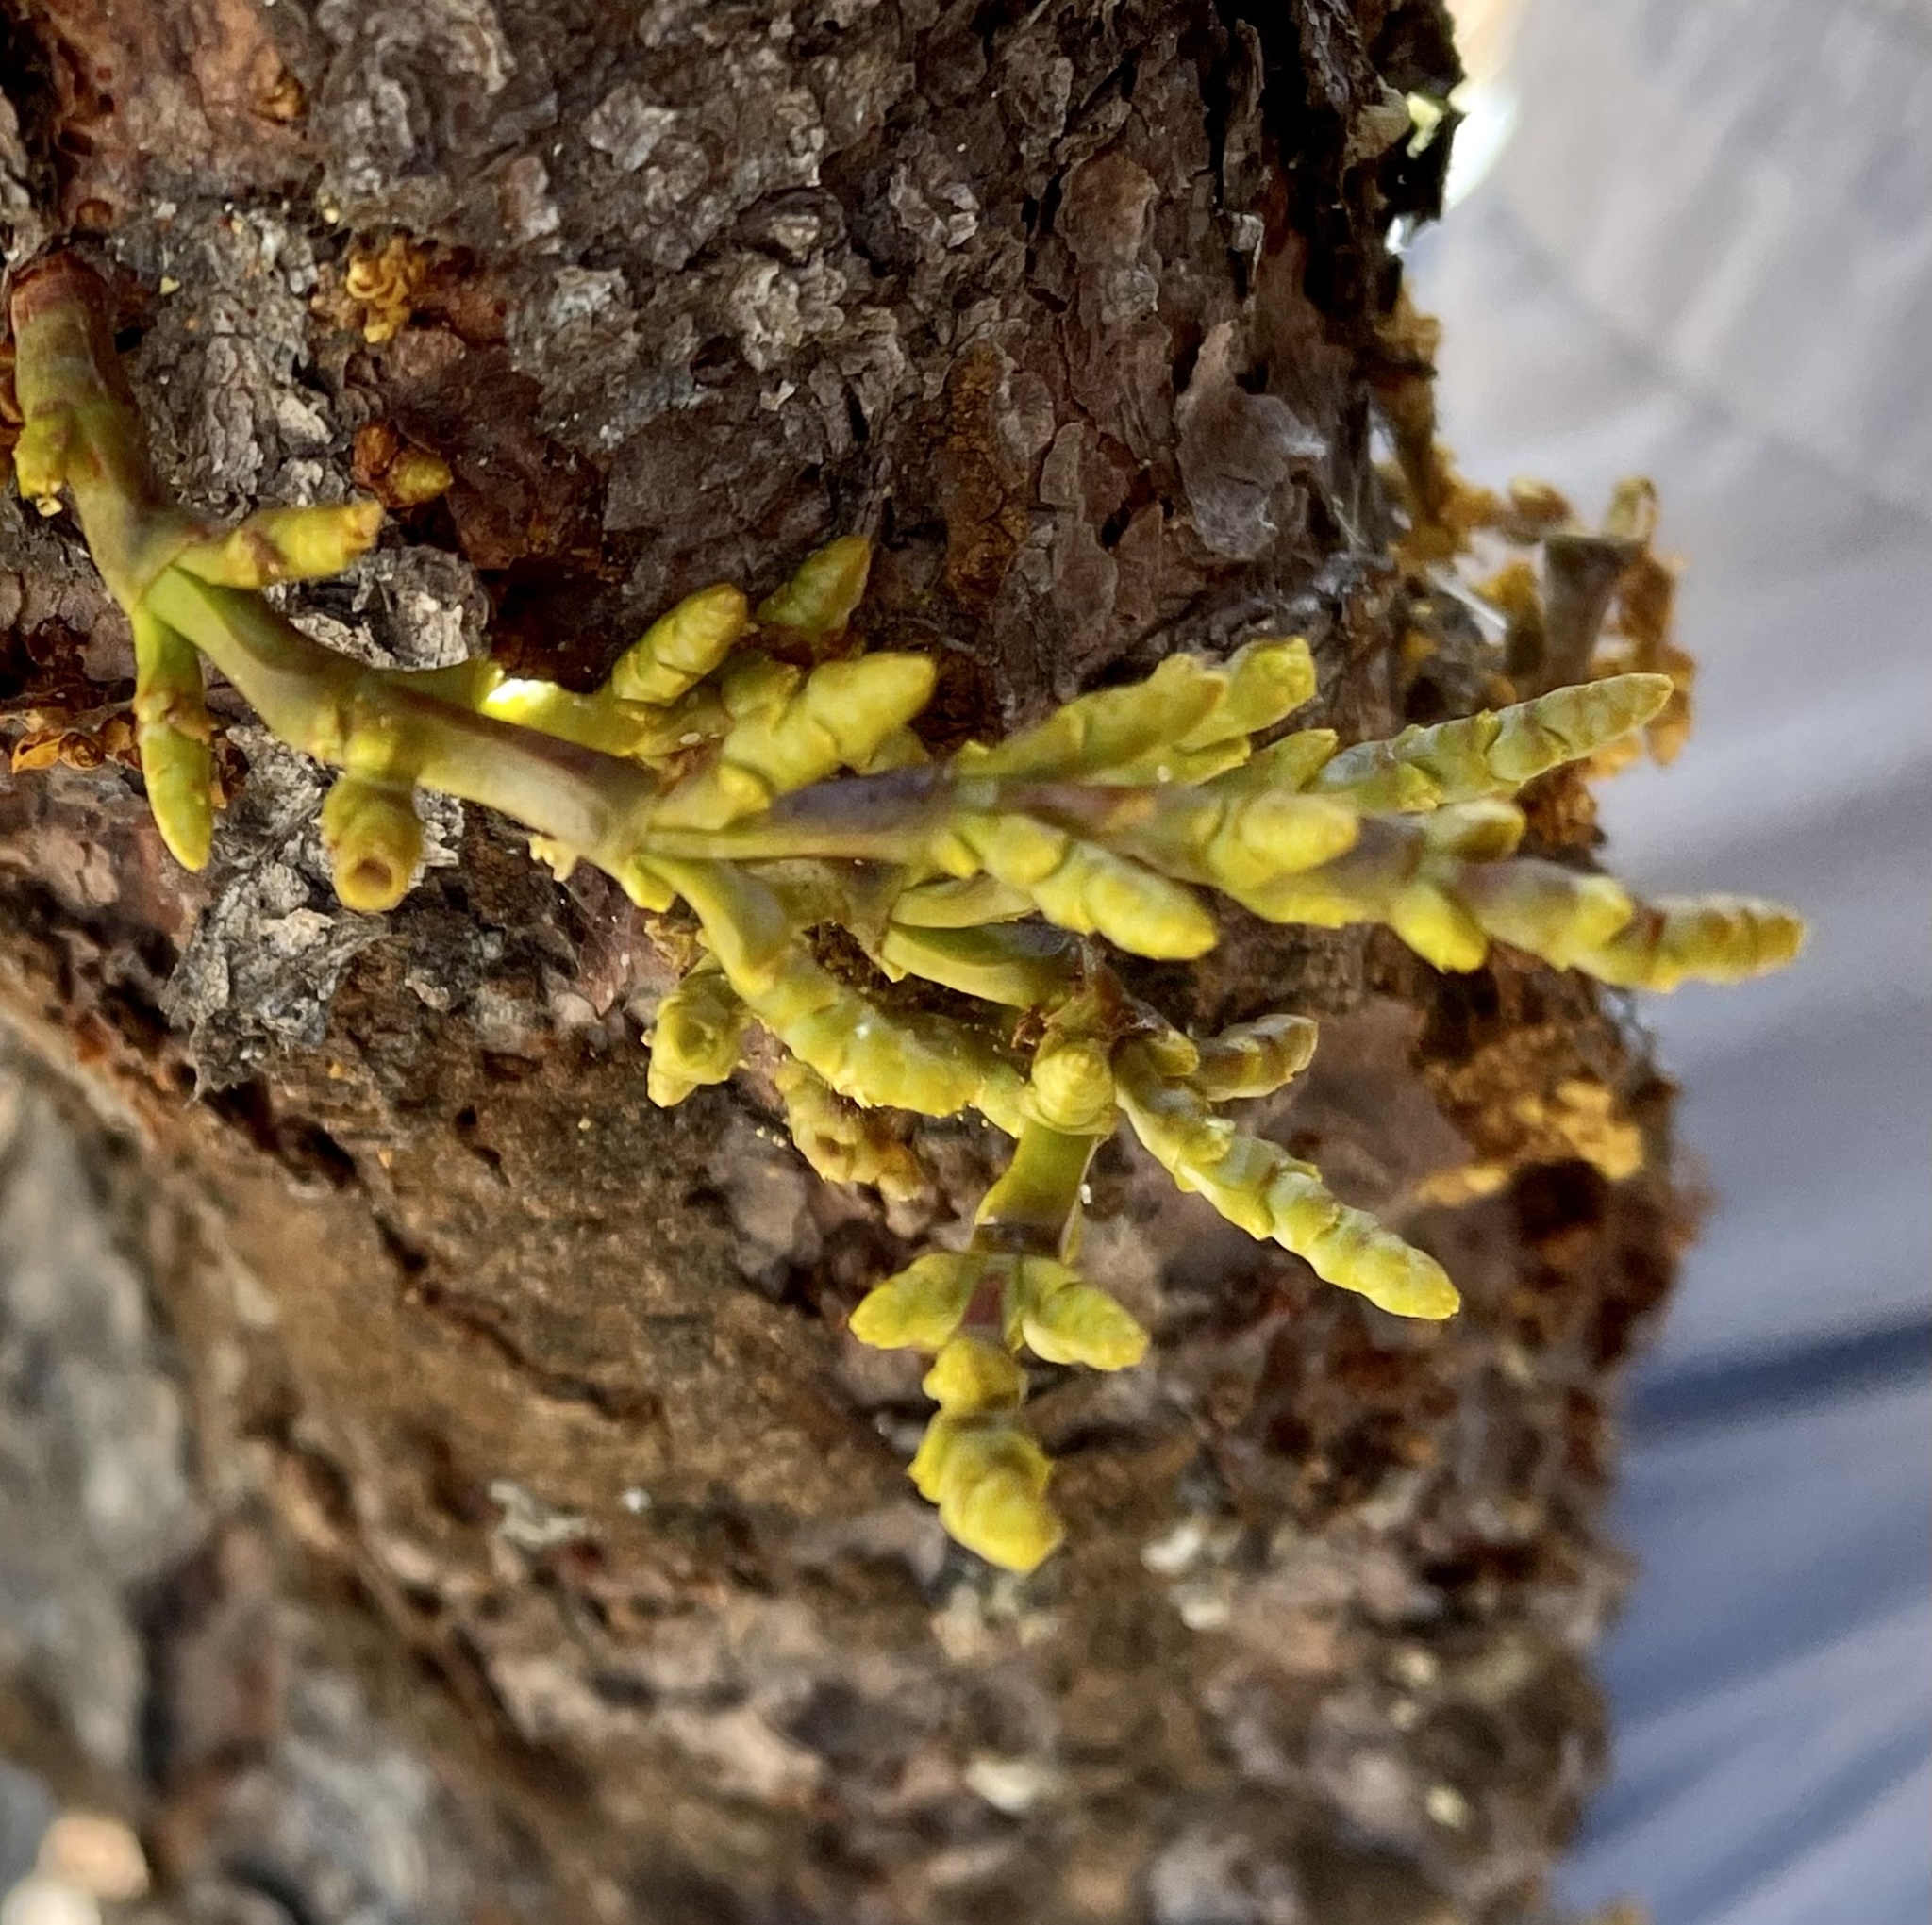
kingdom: Plantae
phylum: Tracheophyta
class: Magnoliopsida
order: Santalales
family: Viscaceae
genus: Arceuthobium
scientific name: Arceuthobium campylopodum
